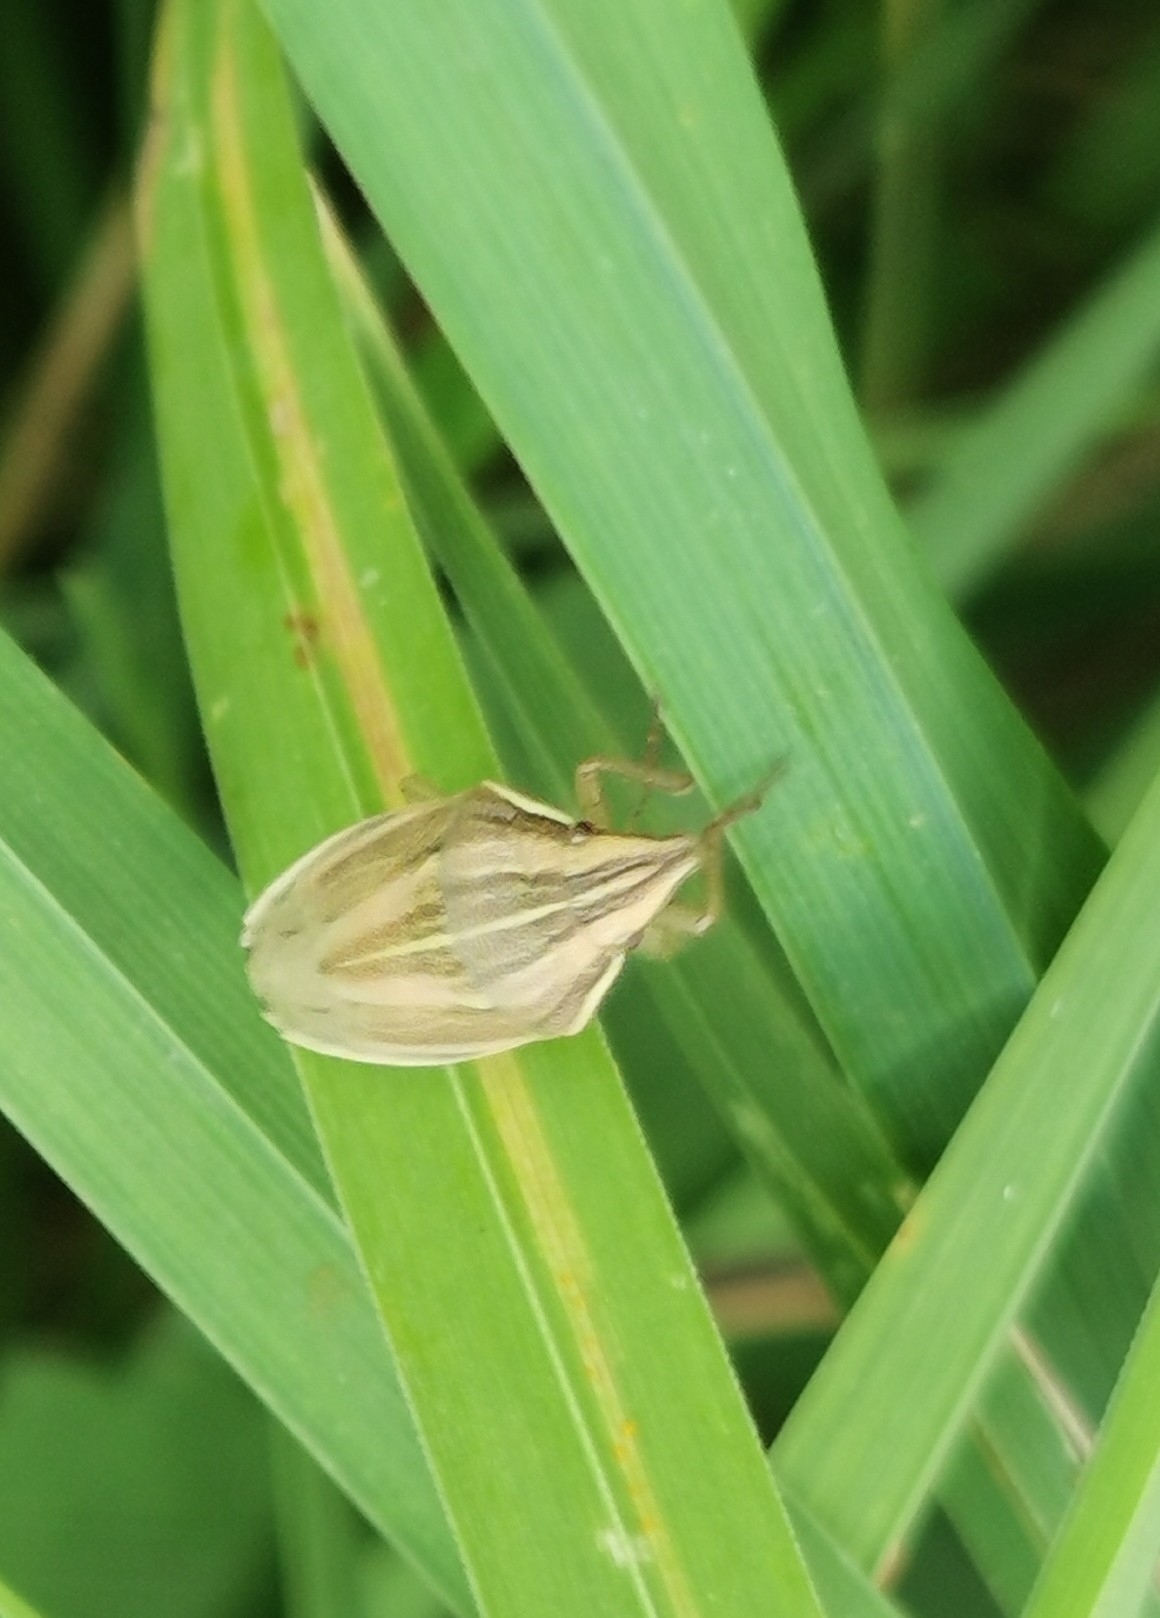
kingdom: Animalia
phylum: Arthropoda
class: Insecta
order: Hemiptera
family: Pentatomidae
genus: Aelia
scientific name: Aelia acuminata
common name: Bishop's mitre
